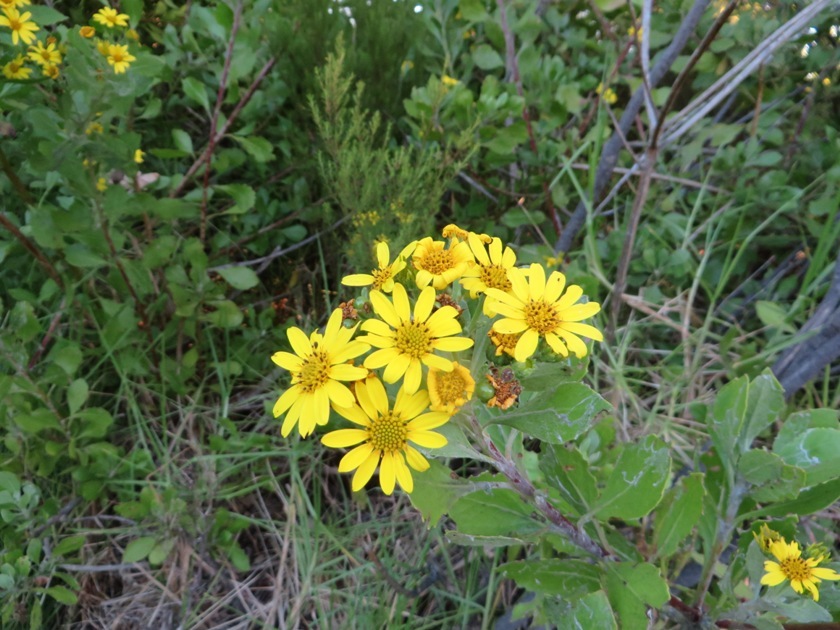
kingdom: Plantae
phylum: Tracheophyta
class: Magnoliopsida
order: Asterales
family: Asteraceae
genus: Osteospermum
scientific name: Osteospermum moniliferum
